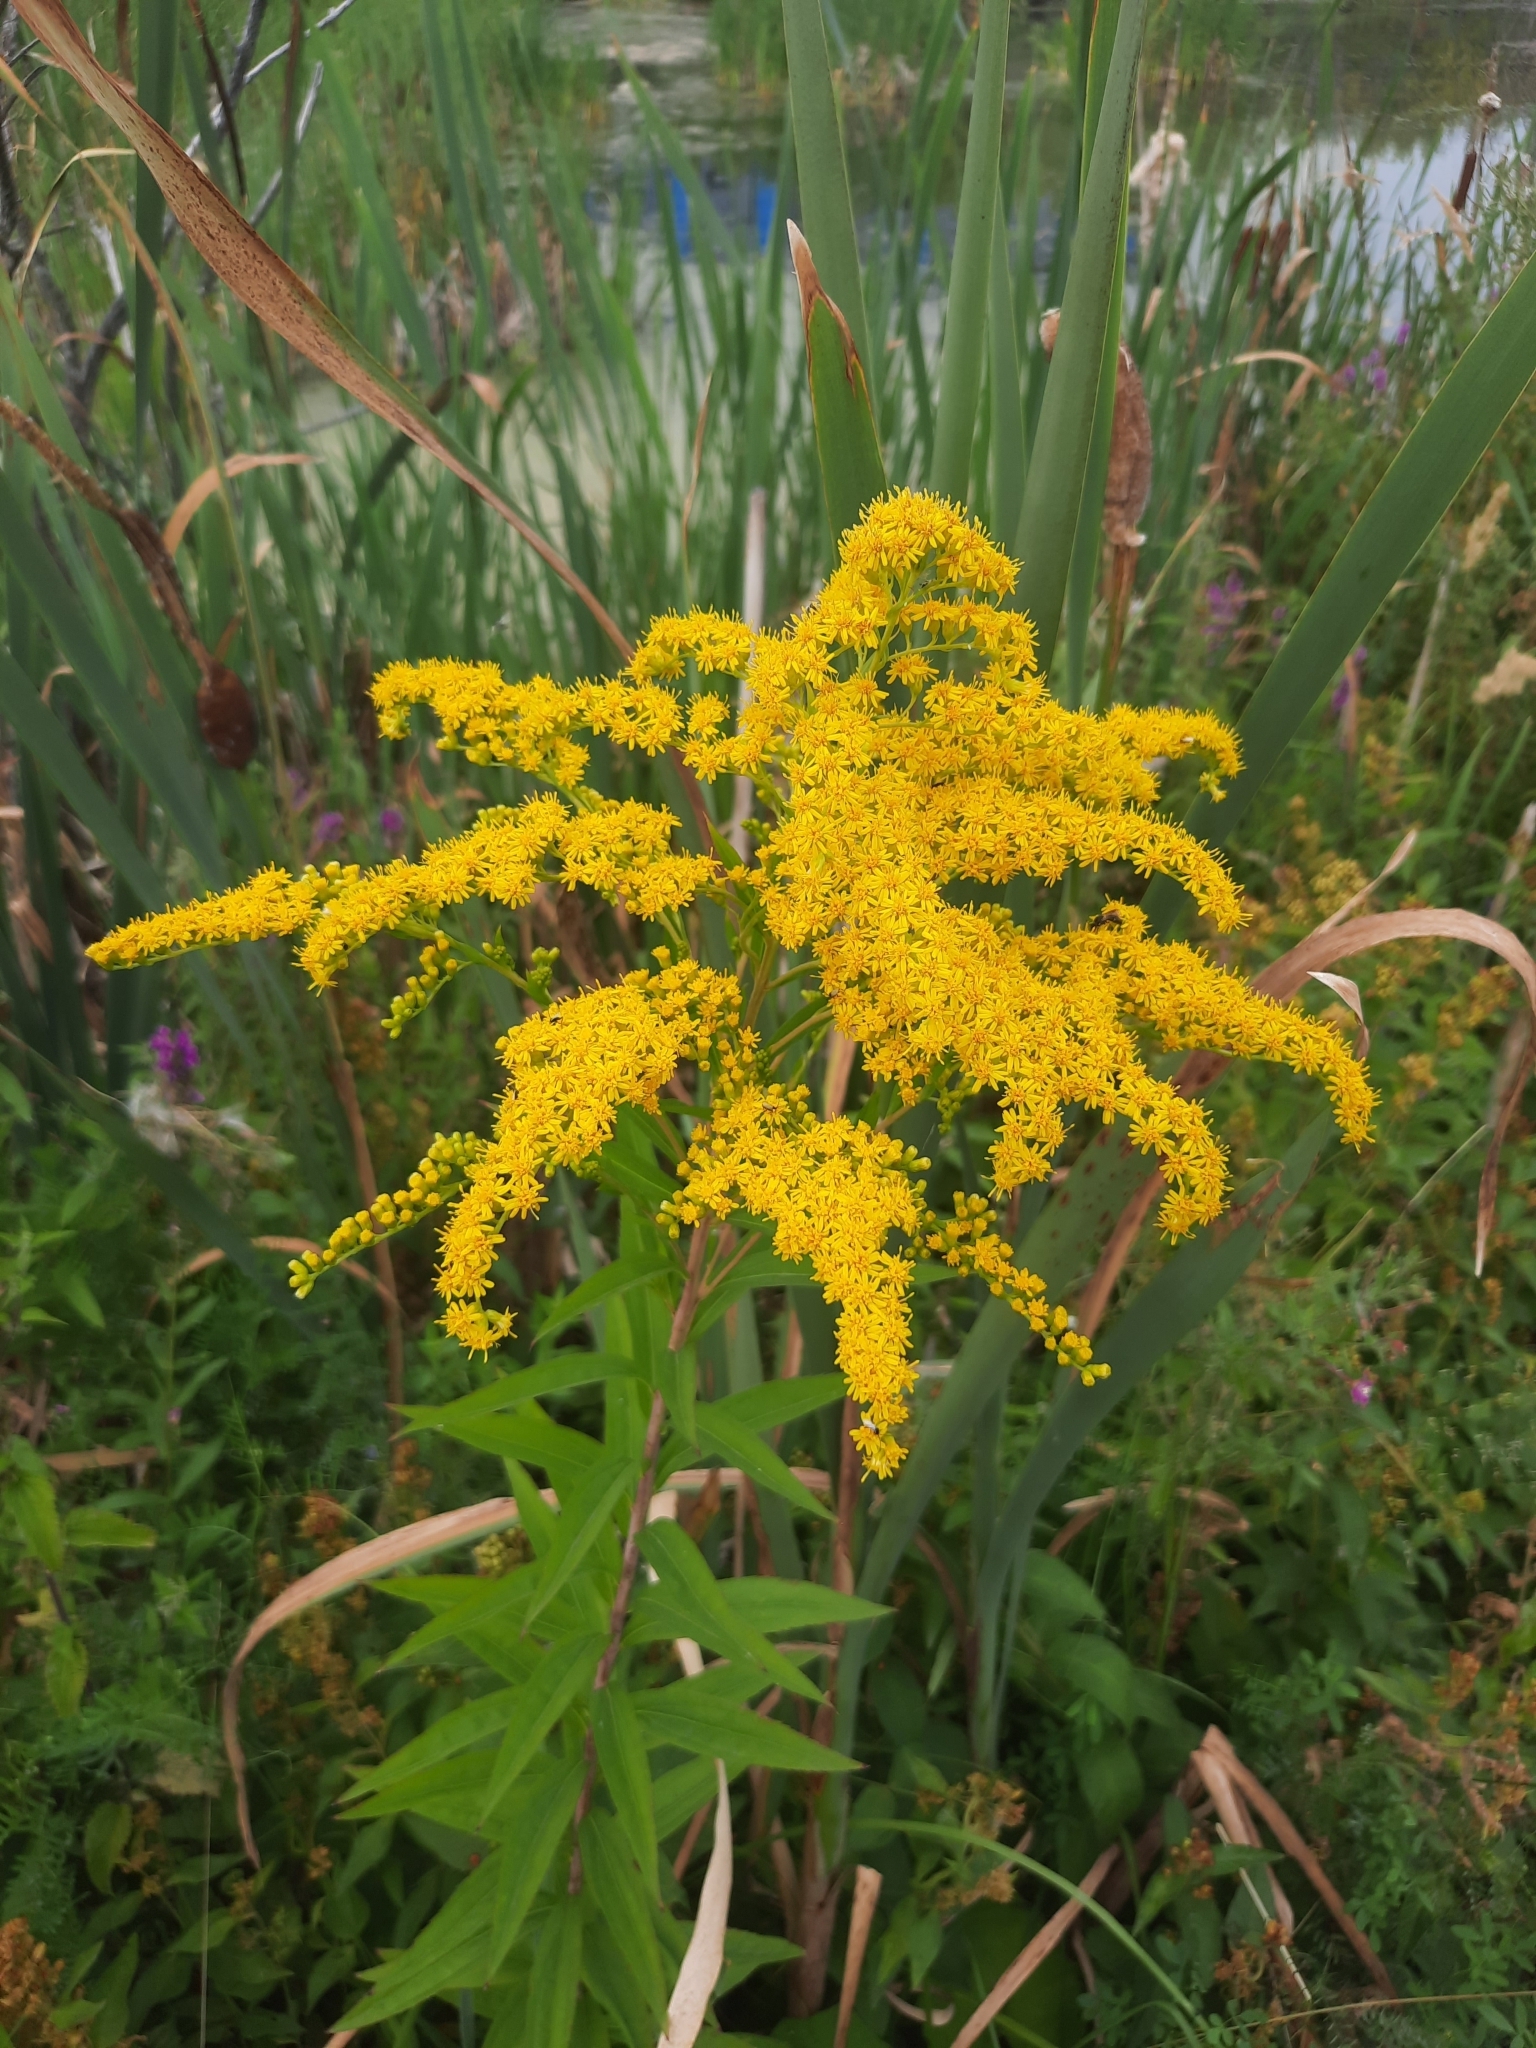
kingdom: Plantae
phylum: Tracheophyta
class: Magnoliopsida
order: Asterales
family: Asteraceae
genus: Solidago
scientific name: Solidago gigantea
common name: Giant goldenrod
